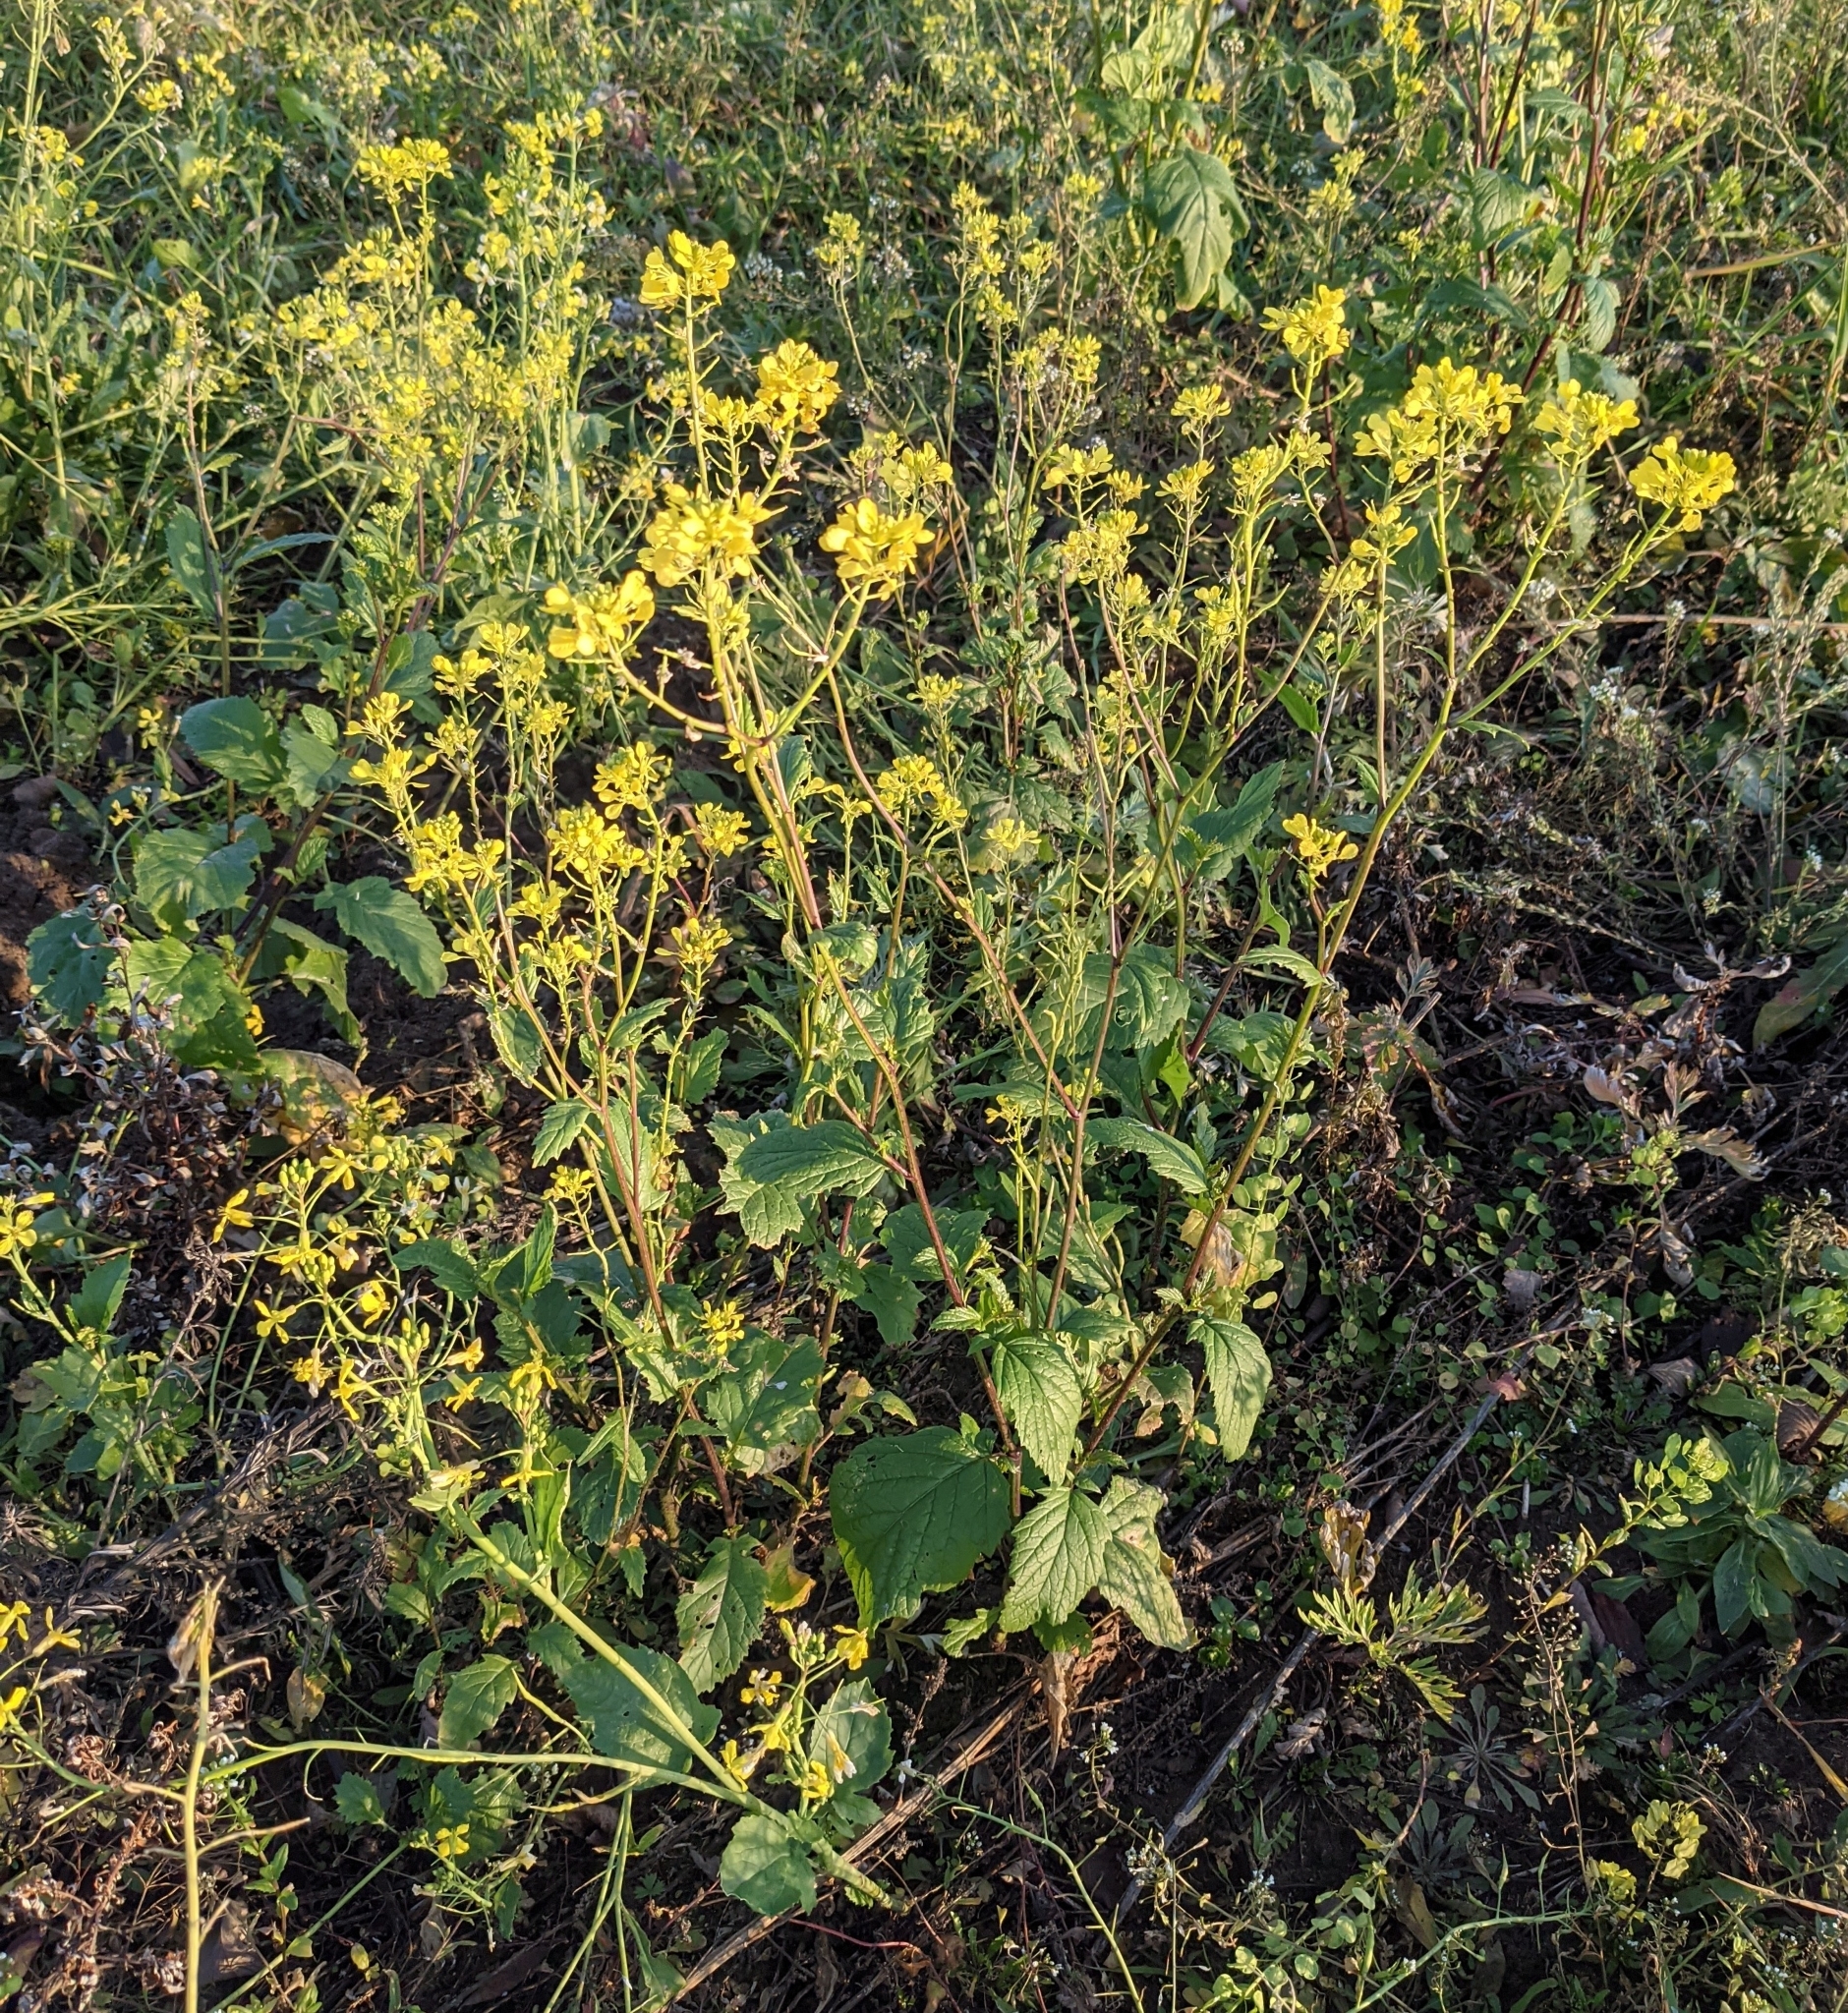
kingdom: Plantae
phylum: Tracheophyta
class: Magnoliopsida
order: Brassicales
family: Brassicaceae
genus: Sinapis
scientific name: Sinapis arvensis
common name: Charlock
